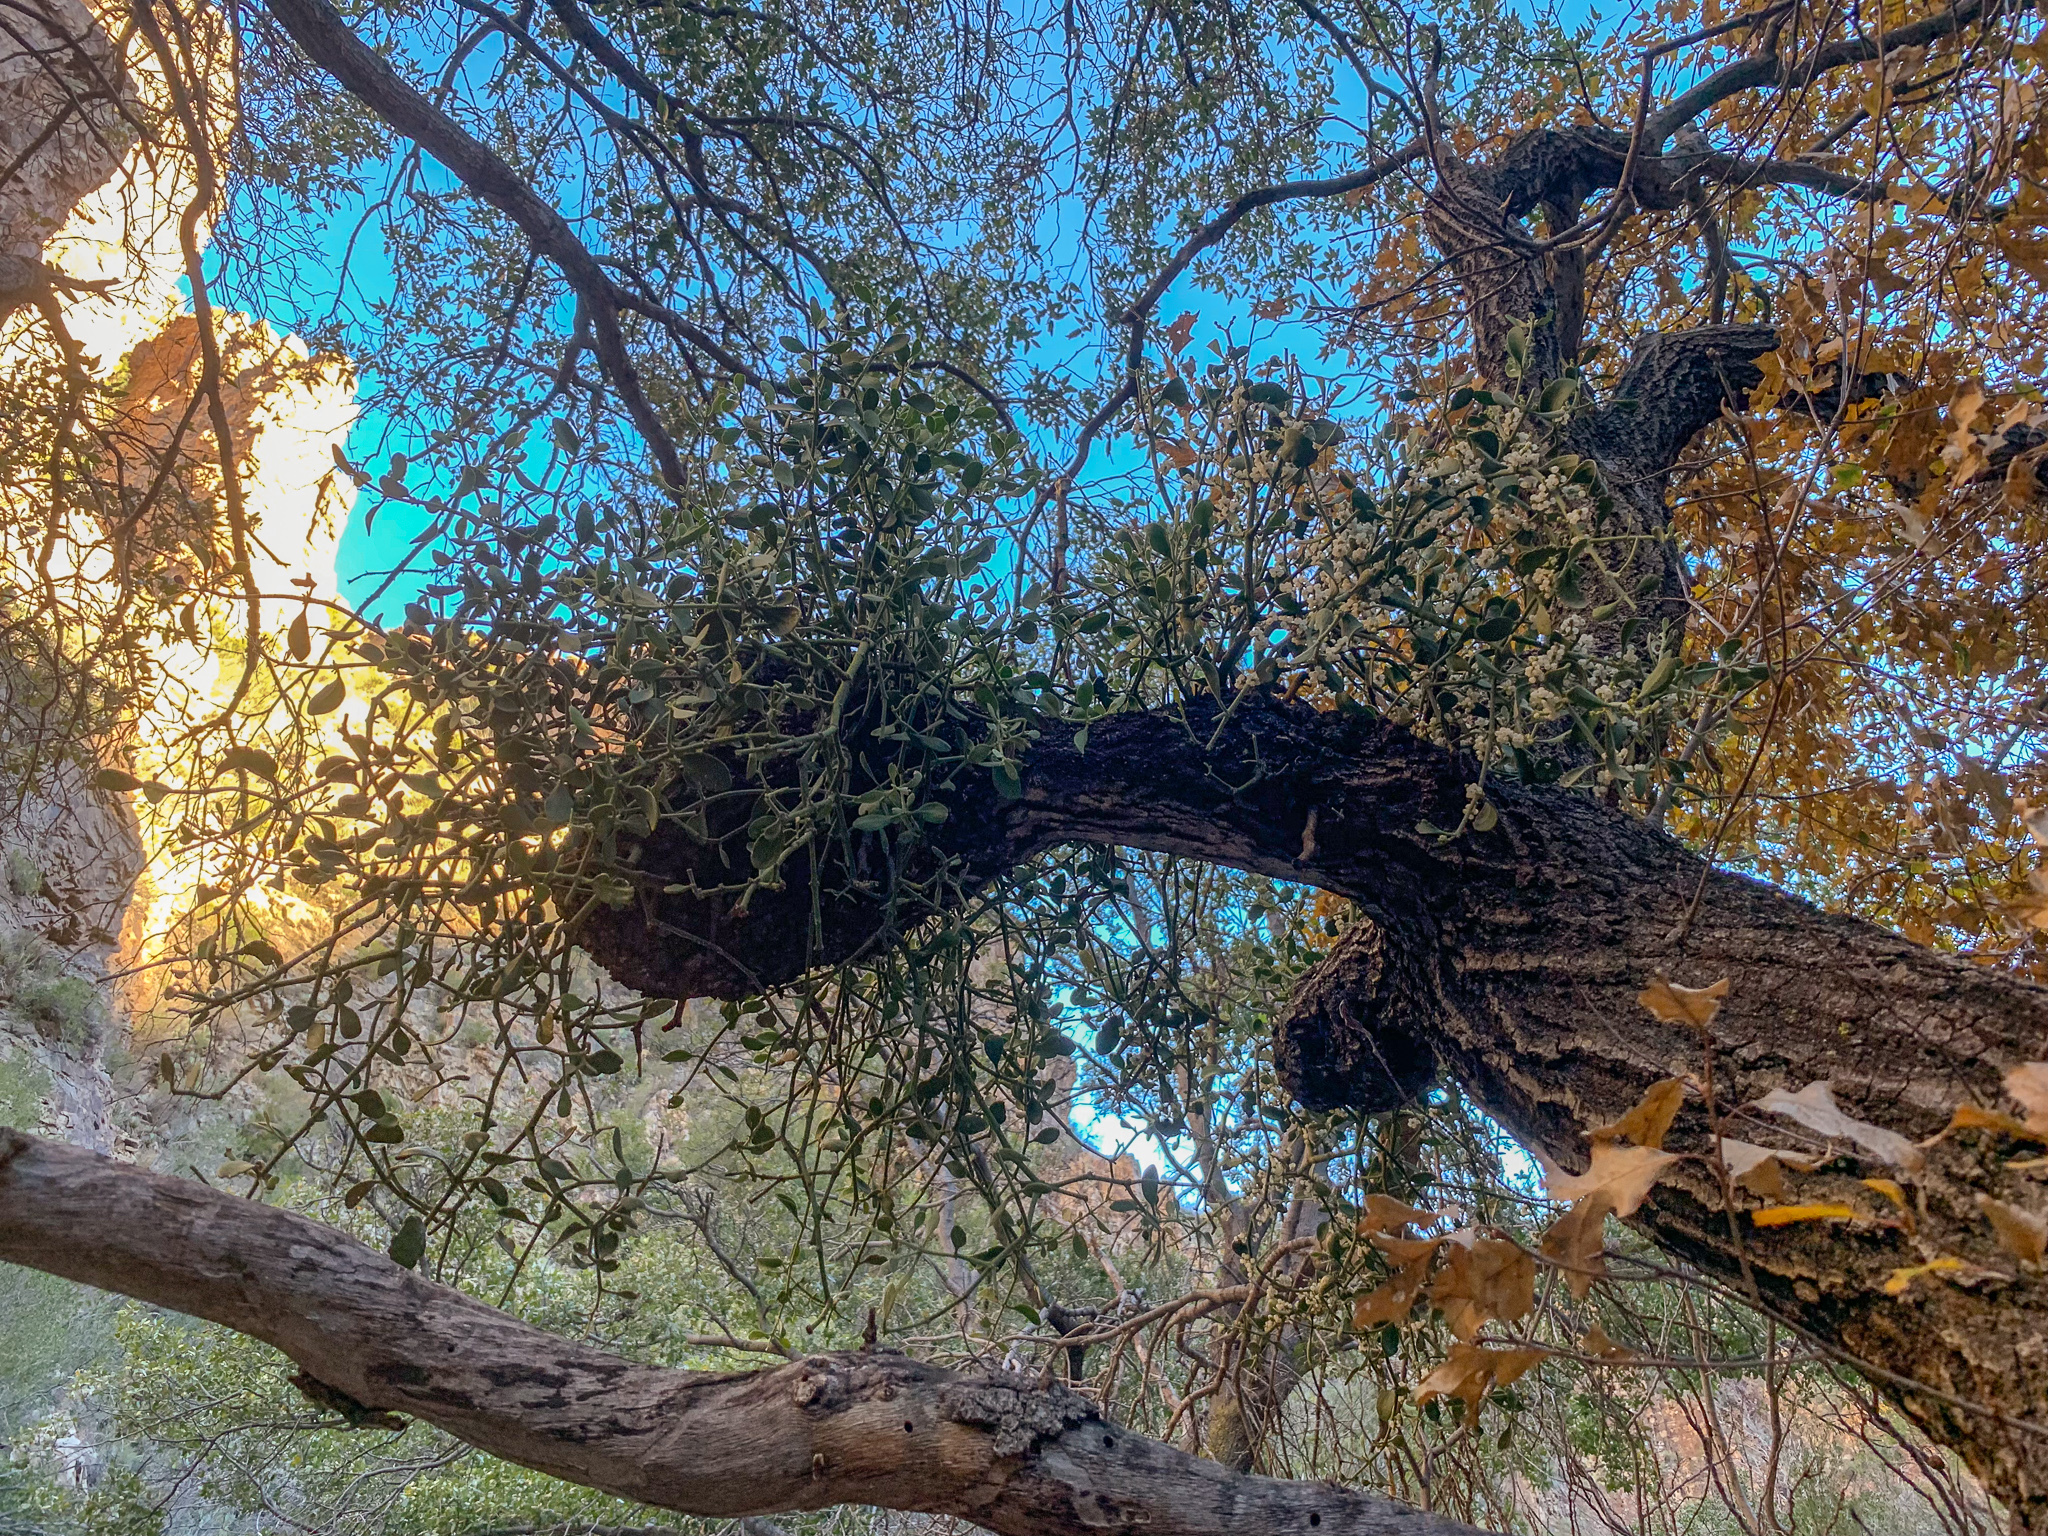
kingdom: Plantae
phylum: Tracheophyta
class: Magnoliopsida
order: Santalales
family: Viscaceae
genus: Phoradendron
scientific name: Phoradendron leucarpum
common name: Pacific mistletoe
